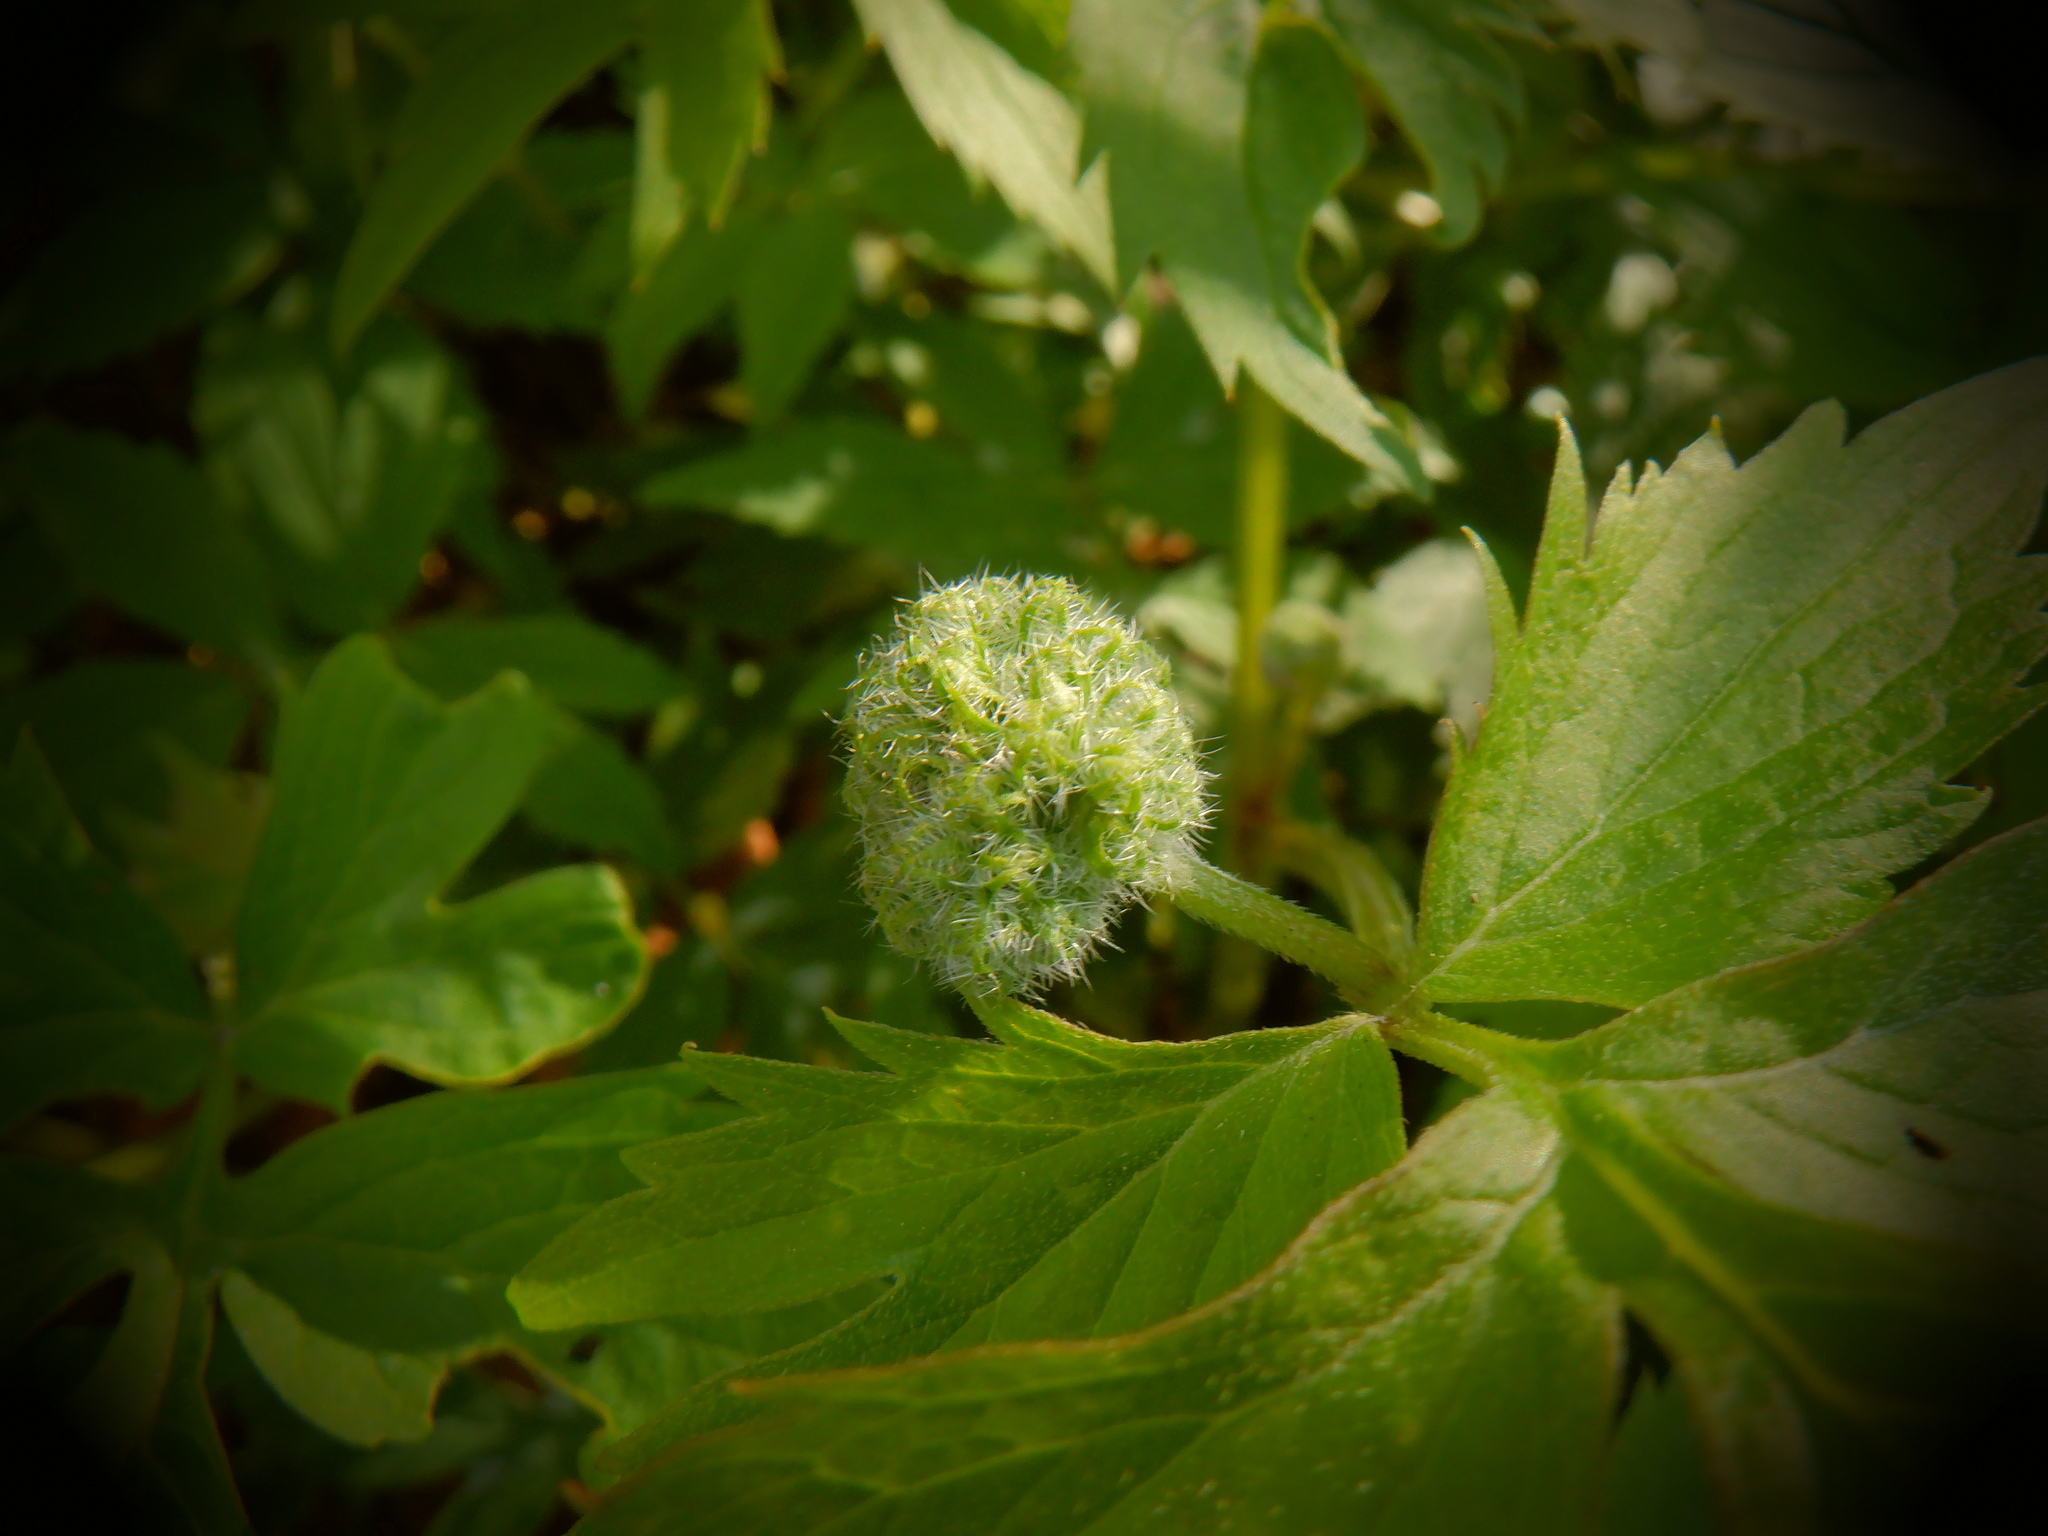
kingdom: Plantae
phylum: Tracheophyta
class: Magnoliopsida
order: Boraginales
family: Hydrophyllaceae
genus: Hydrophyllum
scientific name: Hydrophyllum virginianum
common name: Virginia waterleaf
